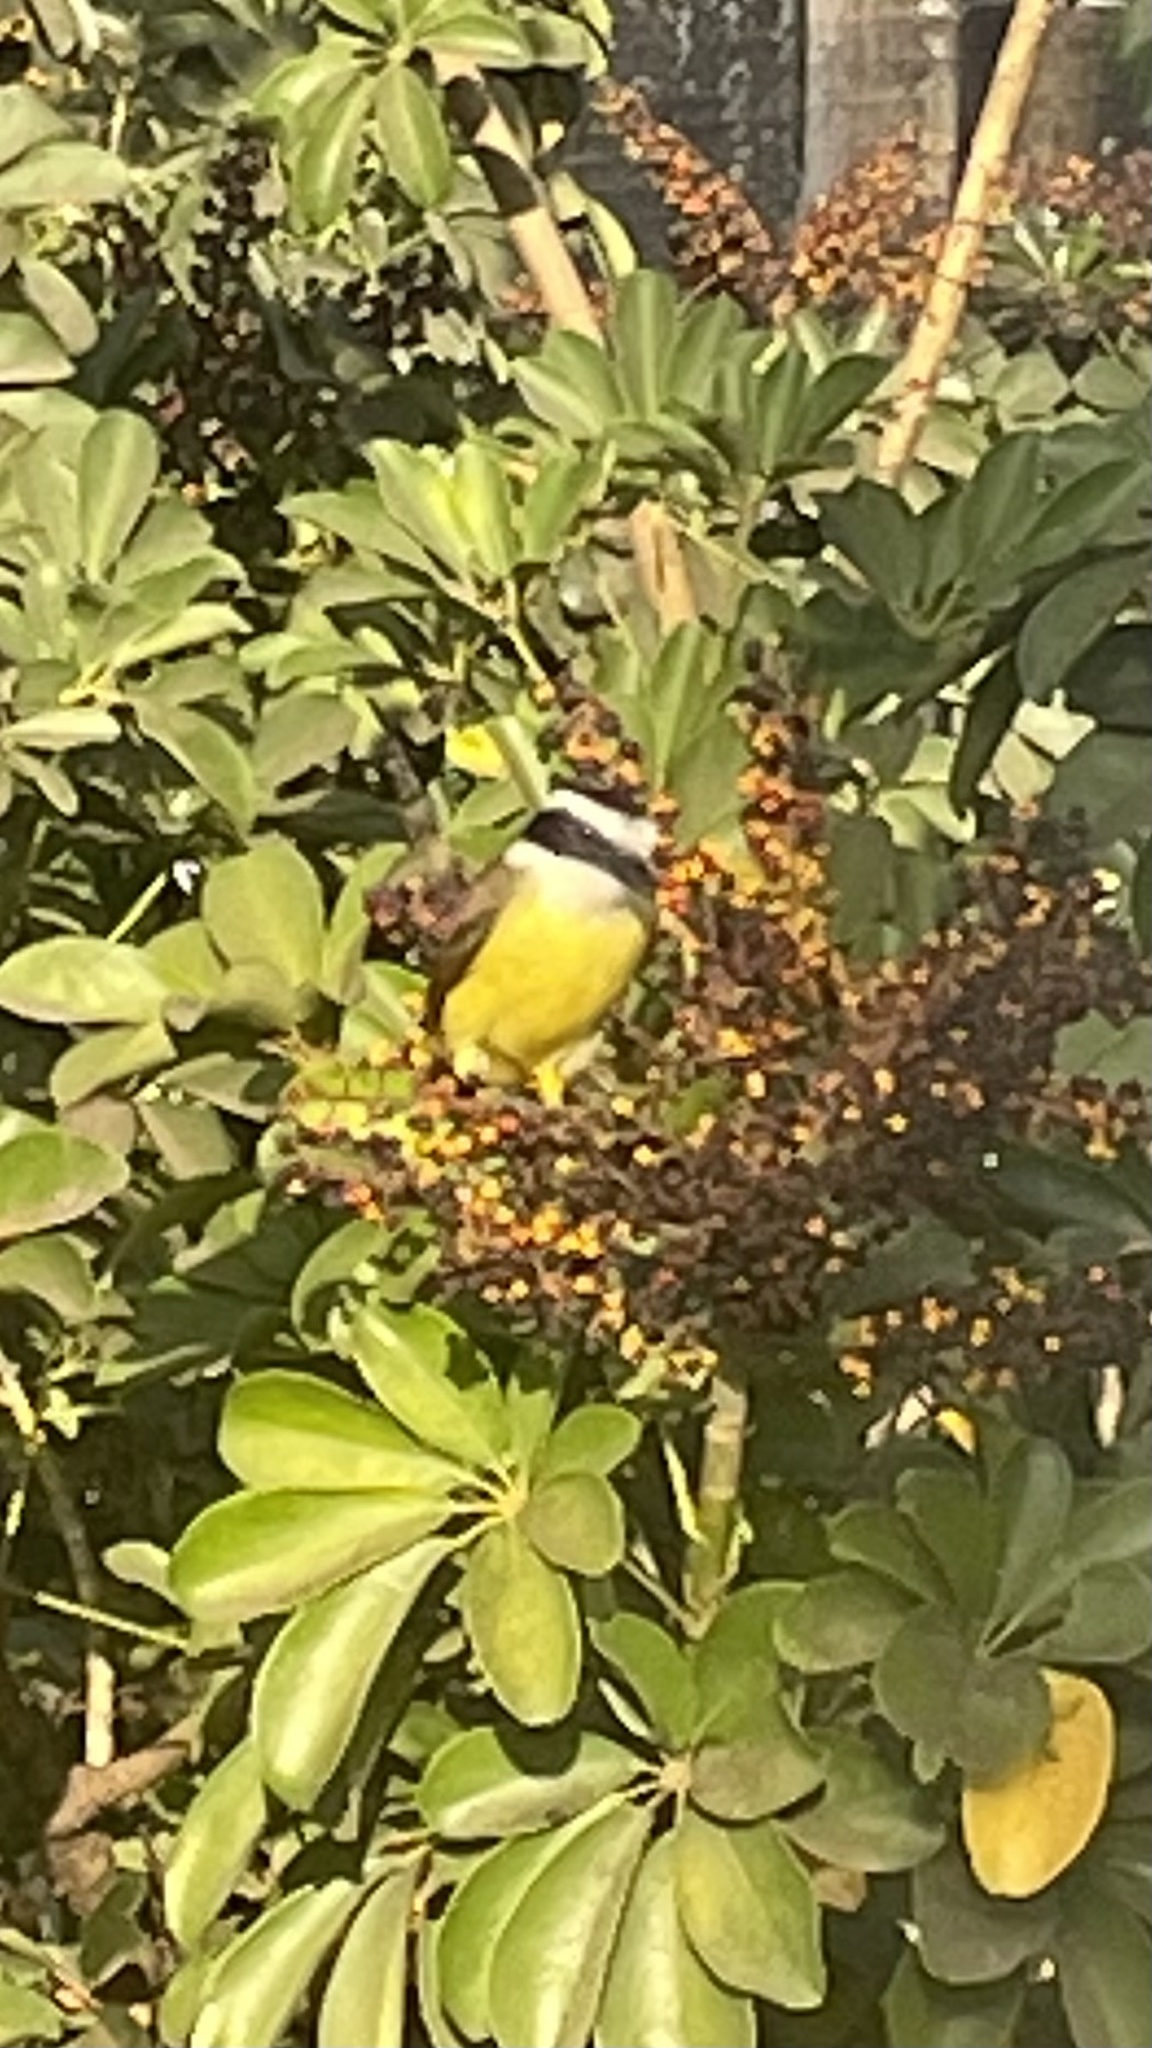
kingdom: Animalia
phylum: Chordata
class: Aves
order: Passeriformes
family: Tyrannidae
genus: Pitangus
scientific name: Pitangus sulphuratus
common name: Great kiskadee
